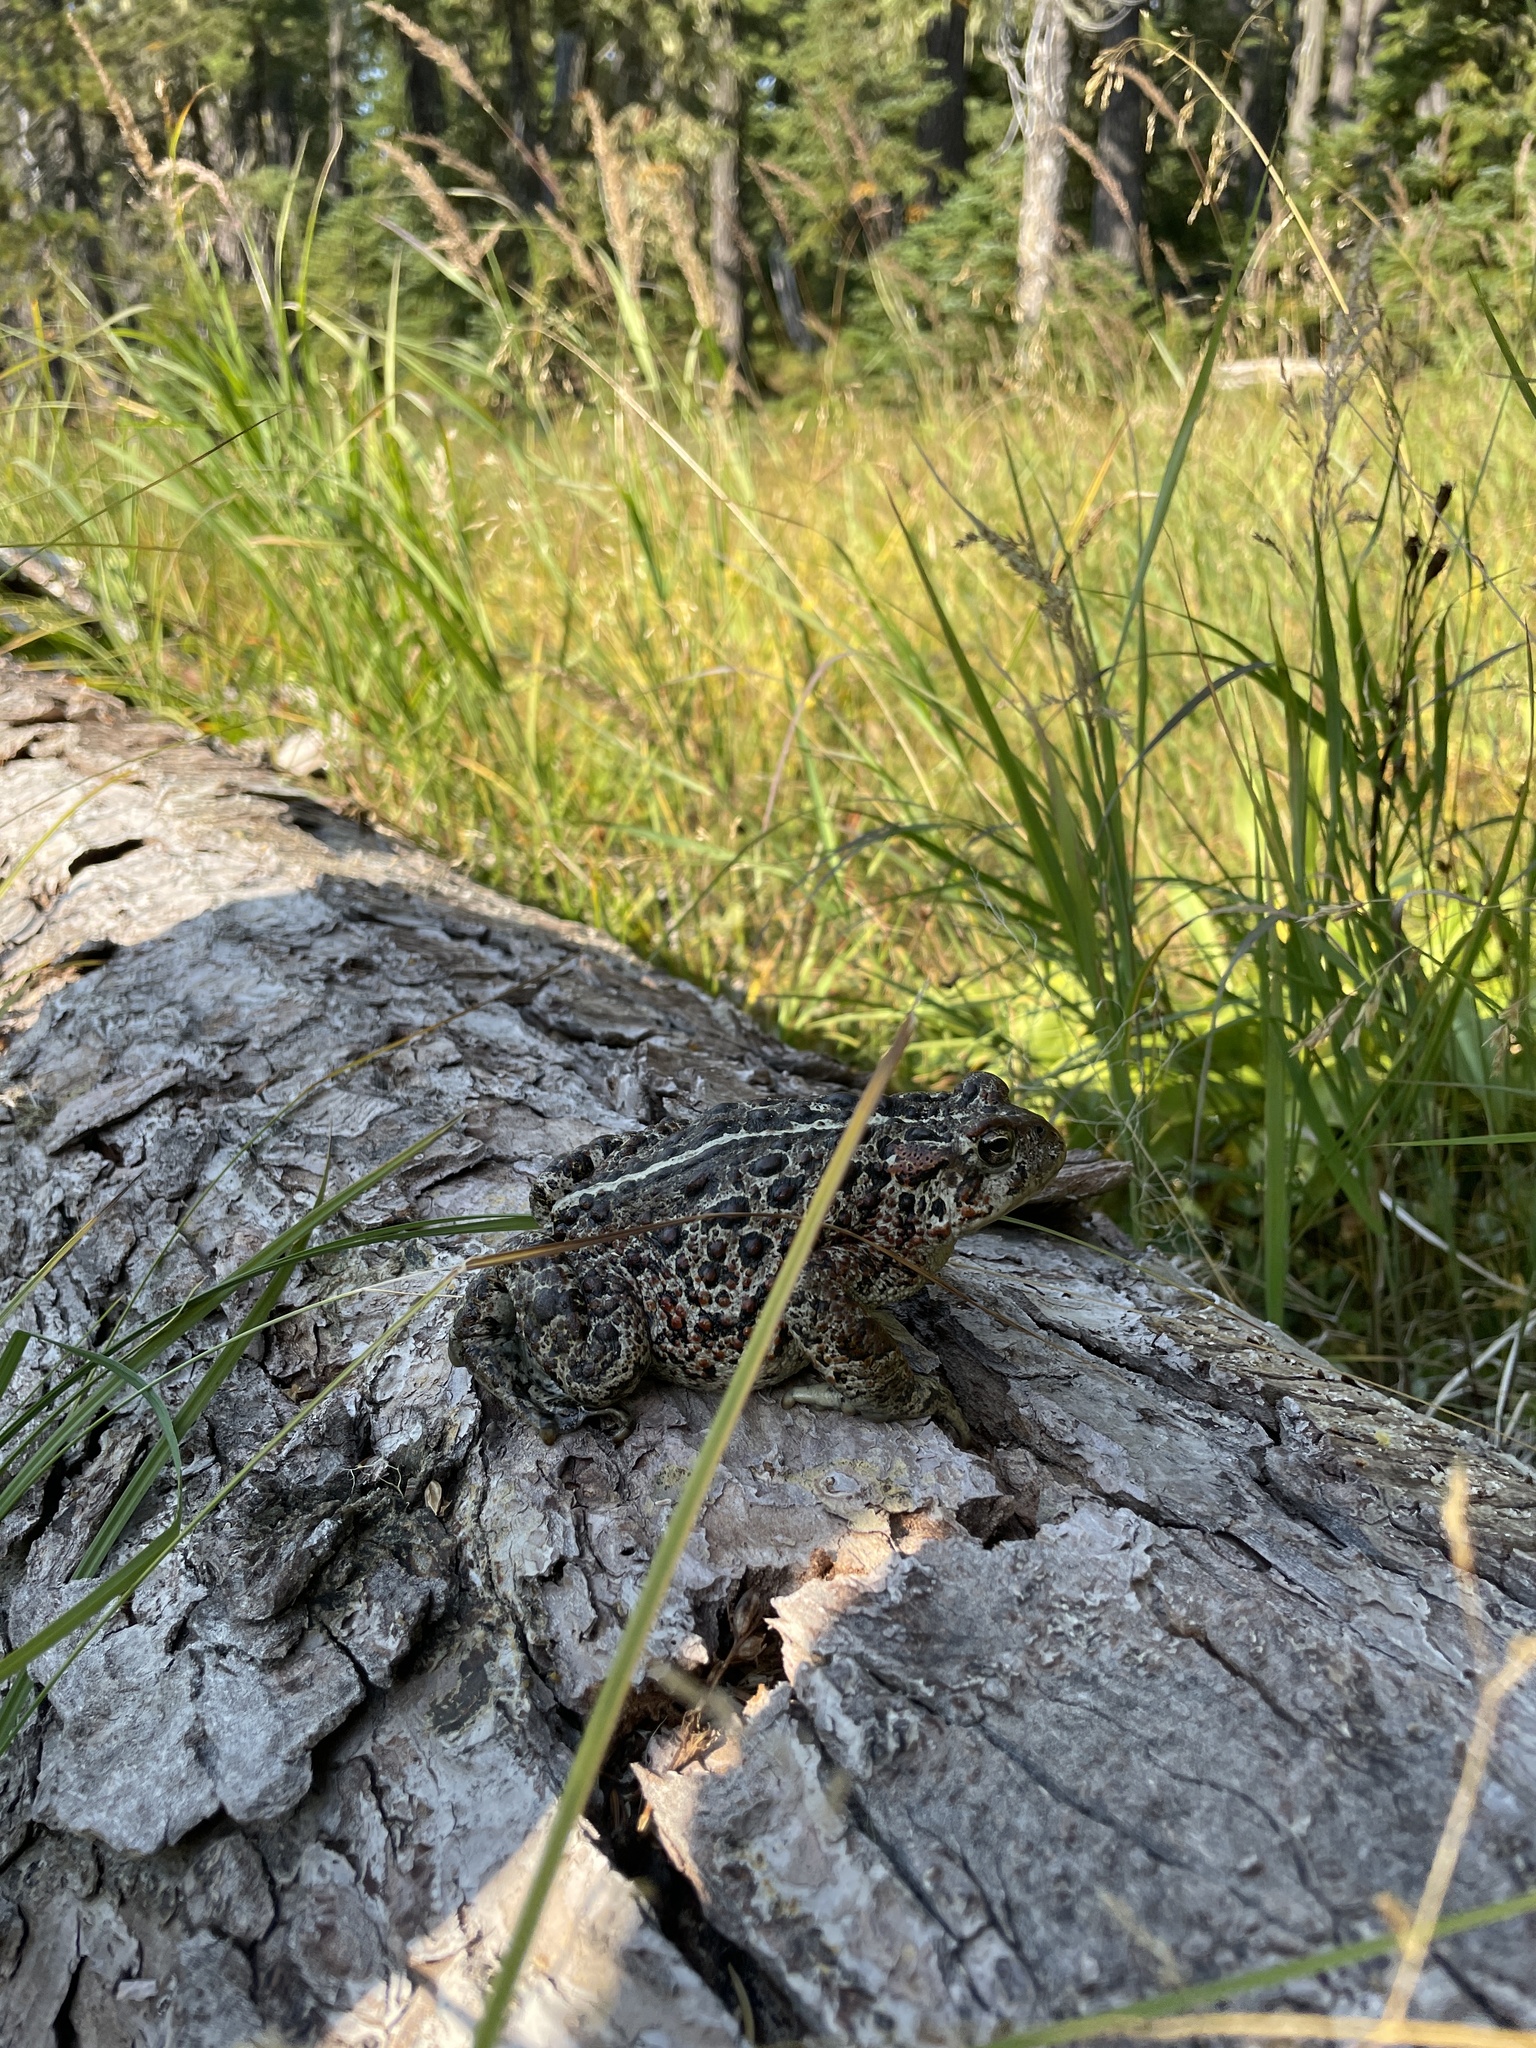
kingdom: Animalia
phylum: Chordata
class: Amphibia
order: Anura
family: Bufonidae
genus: Anaxyrus
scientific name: Anaxyrus boreas
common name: Western toad
